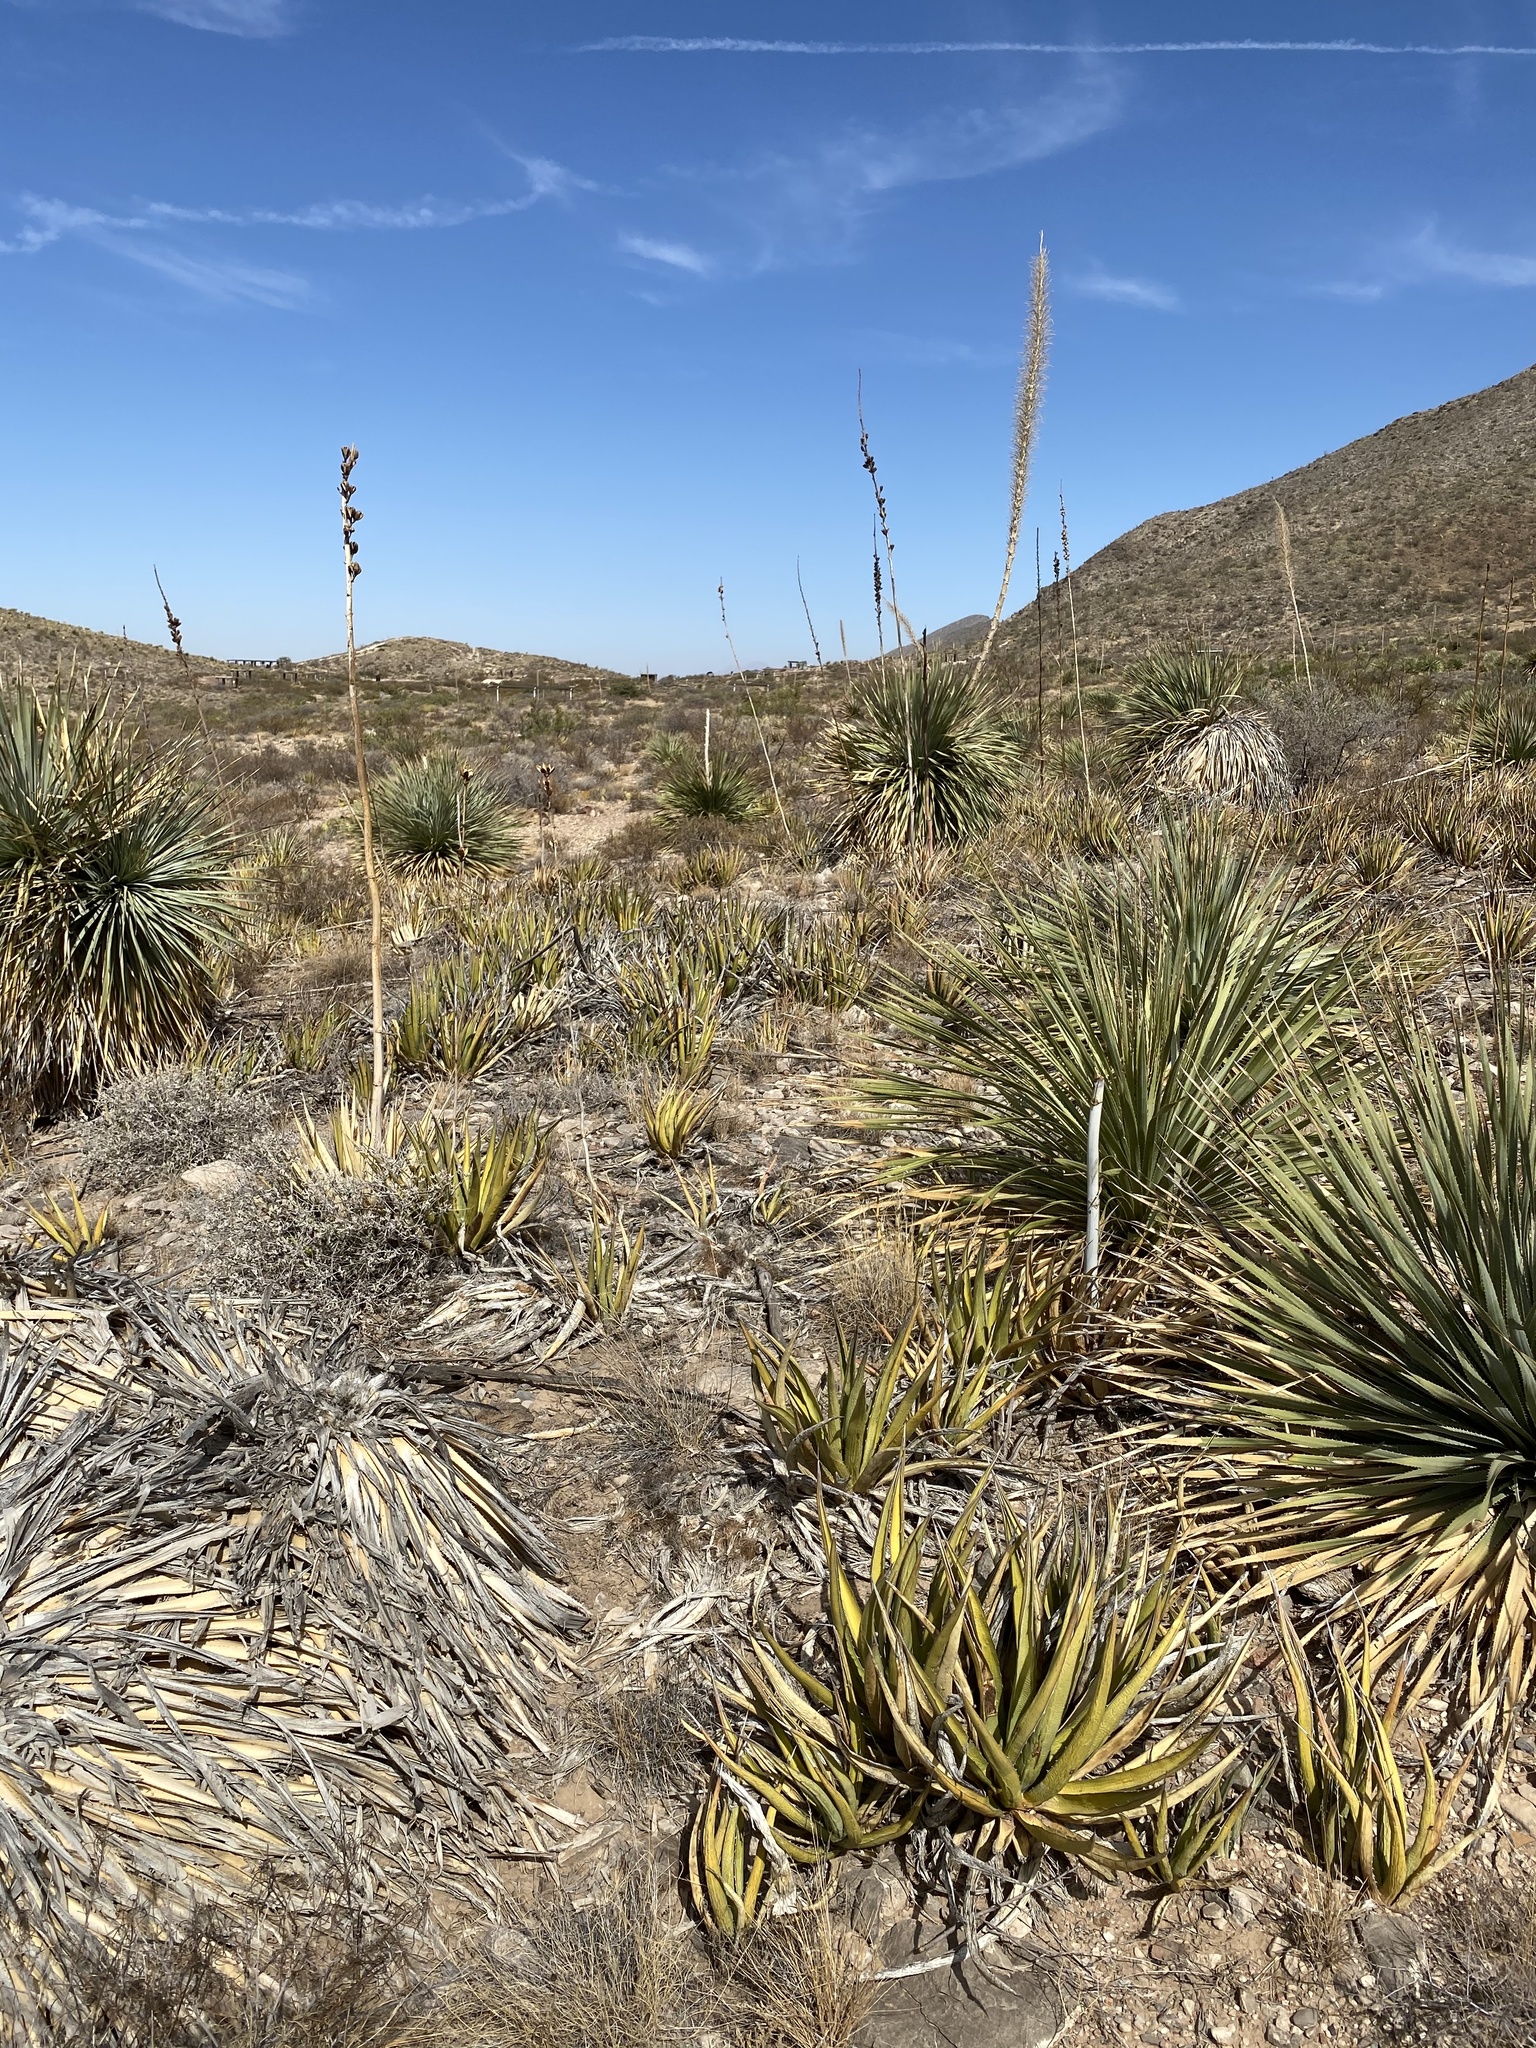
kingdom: Plantae
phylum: Tracheophyta
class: Liliopsida
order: Asparagales
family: Asparagaceae
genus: Agave
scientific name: Agave lechuguilla
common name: Lecheguilla agave
